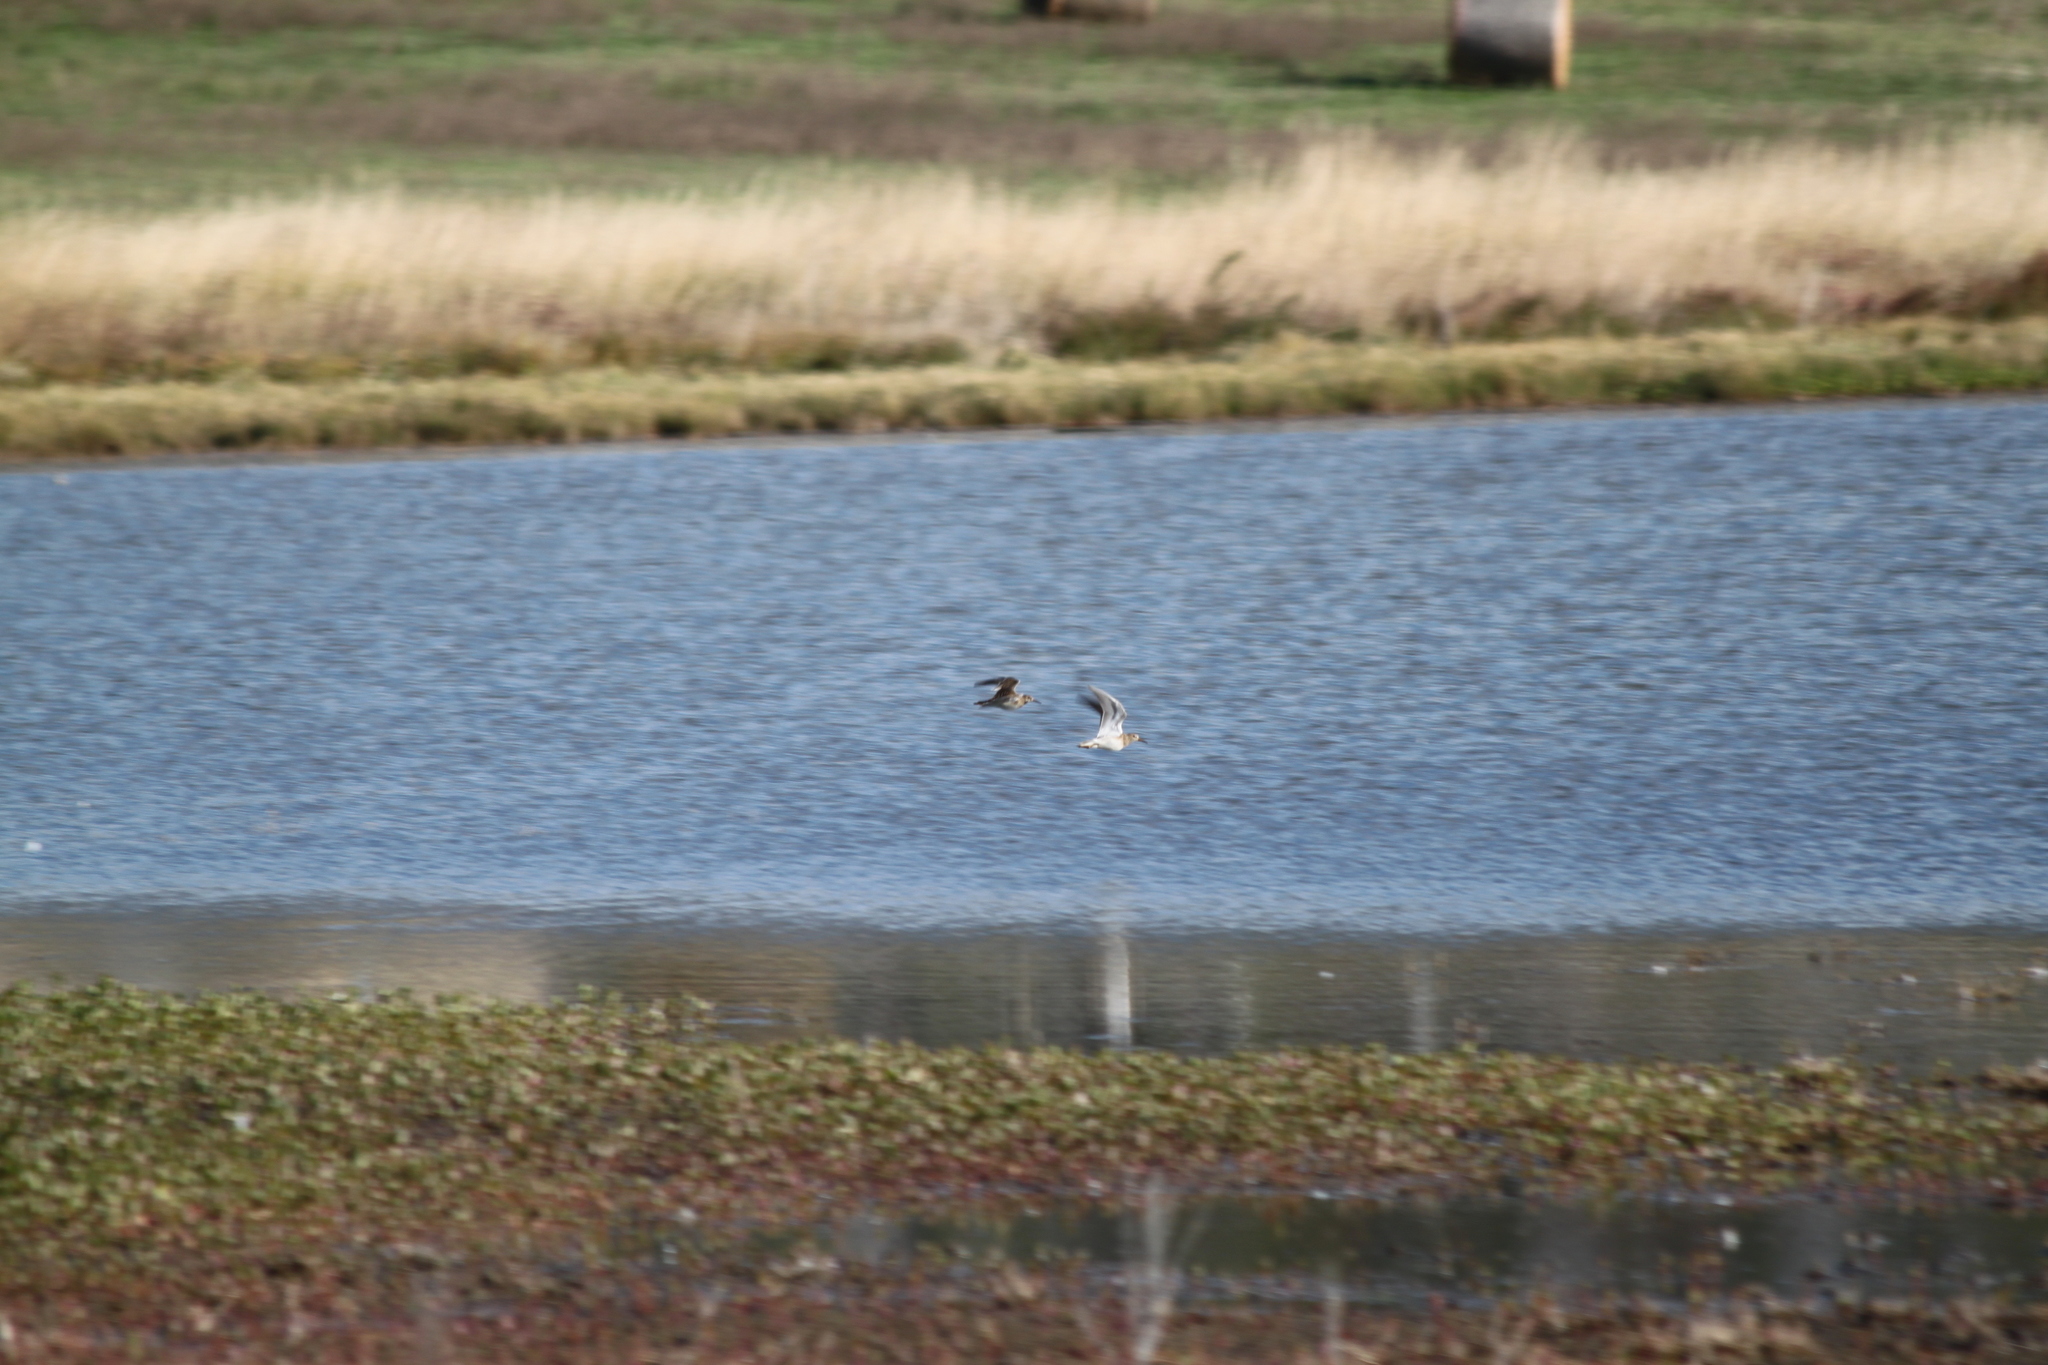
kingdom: Animalia
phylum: Chordata
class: Aves
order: Charadriiformes
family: Scolopacidae
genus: Calidris
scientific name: Calidris melanotos
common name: Pectoral sandpiper
